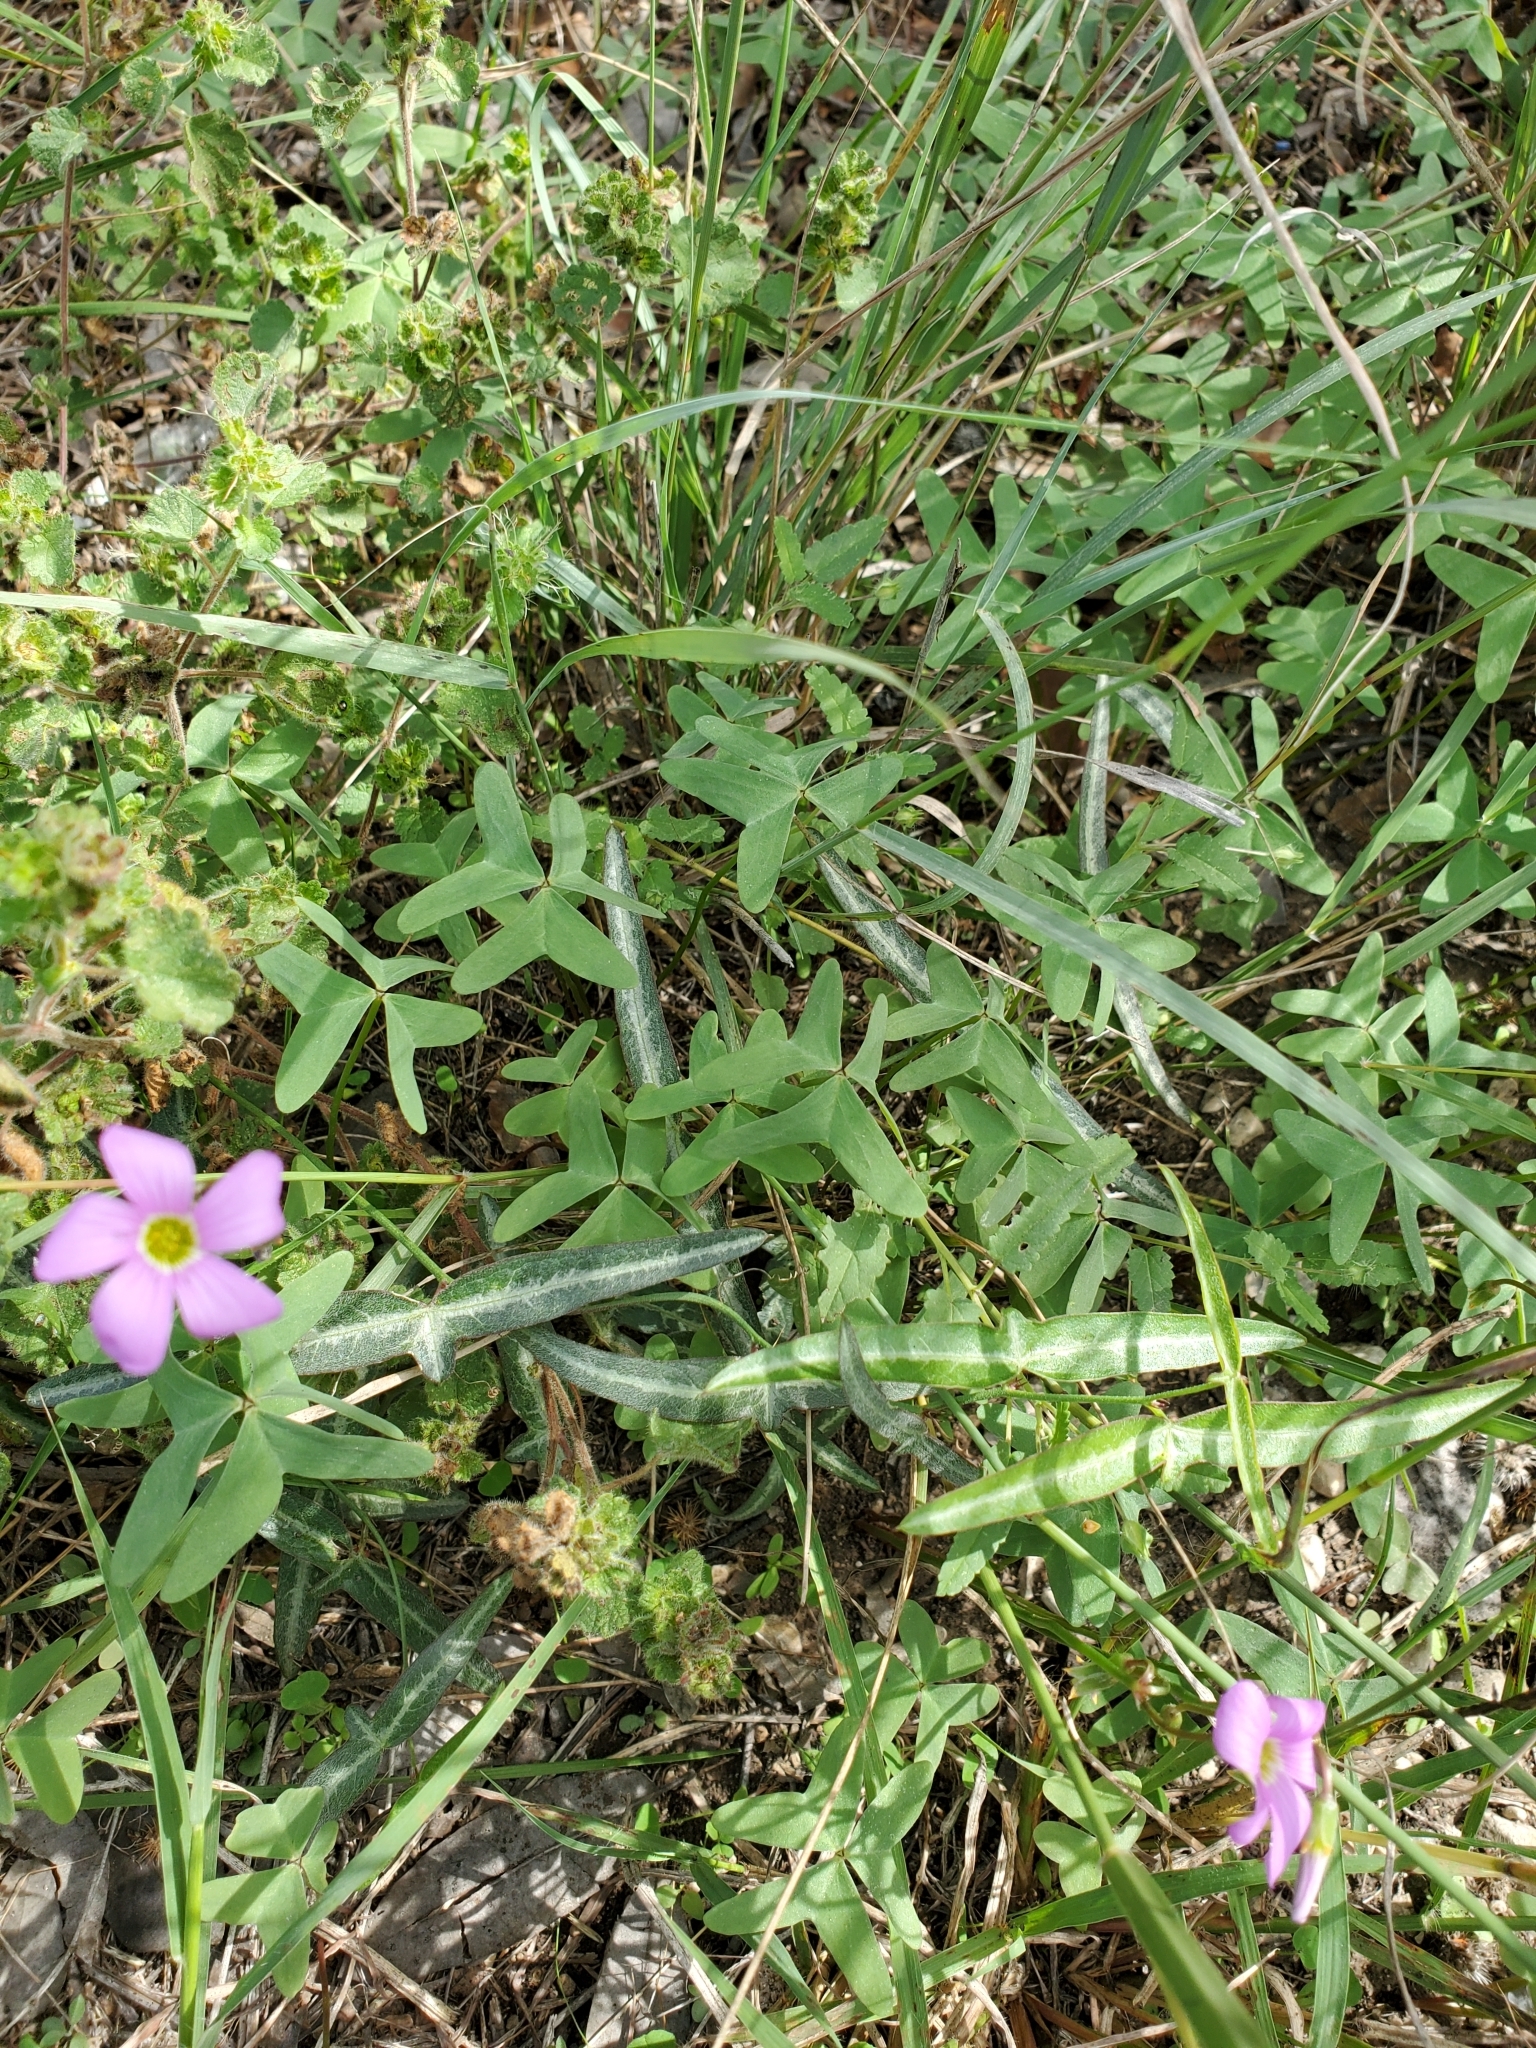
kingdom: Plantae
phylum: Tracheophyta
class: Magnoliopsida
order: Oxalidales
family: Oxalidaceae
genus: Oxalis
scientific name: Oxalis drummondii
